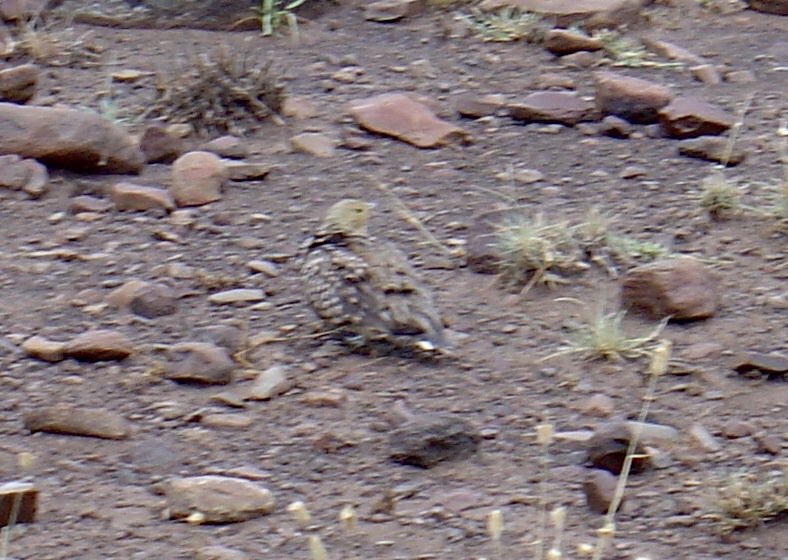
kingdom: Animalia
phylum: Chordata
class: Aves
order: Pteroclidiformes
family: Pteroclididae
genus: Pterocles
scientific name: Pterocles namaqua
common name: Namaqua sandgrouse
